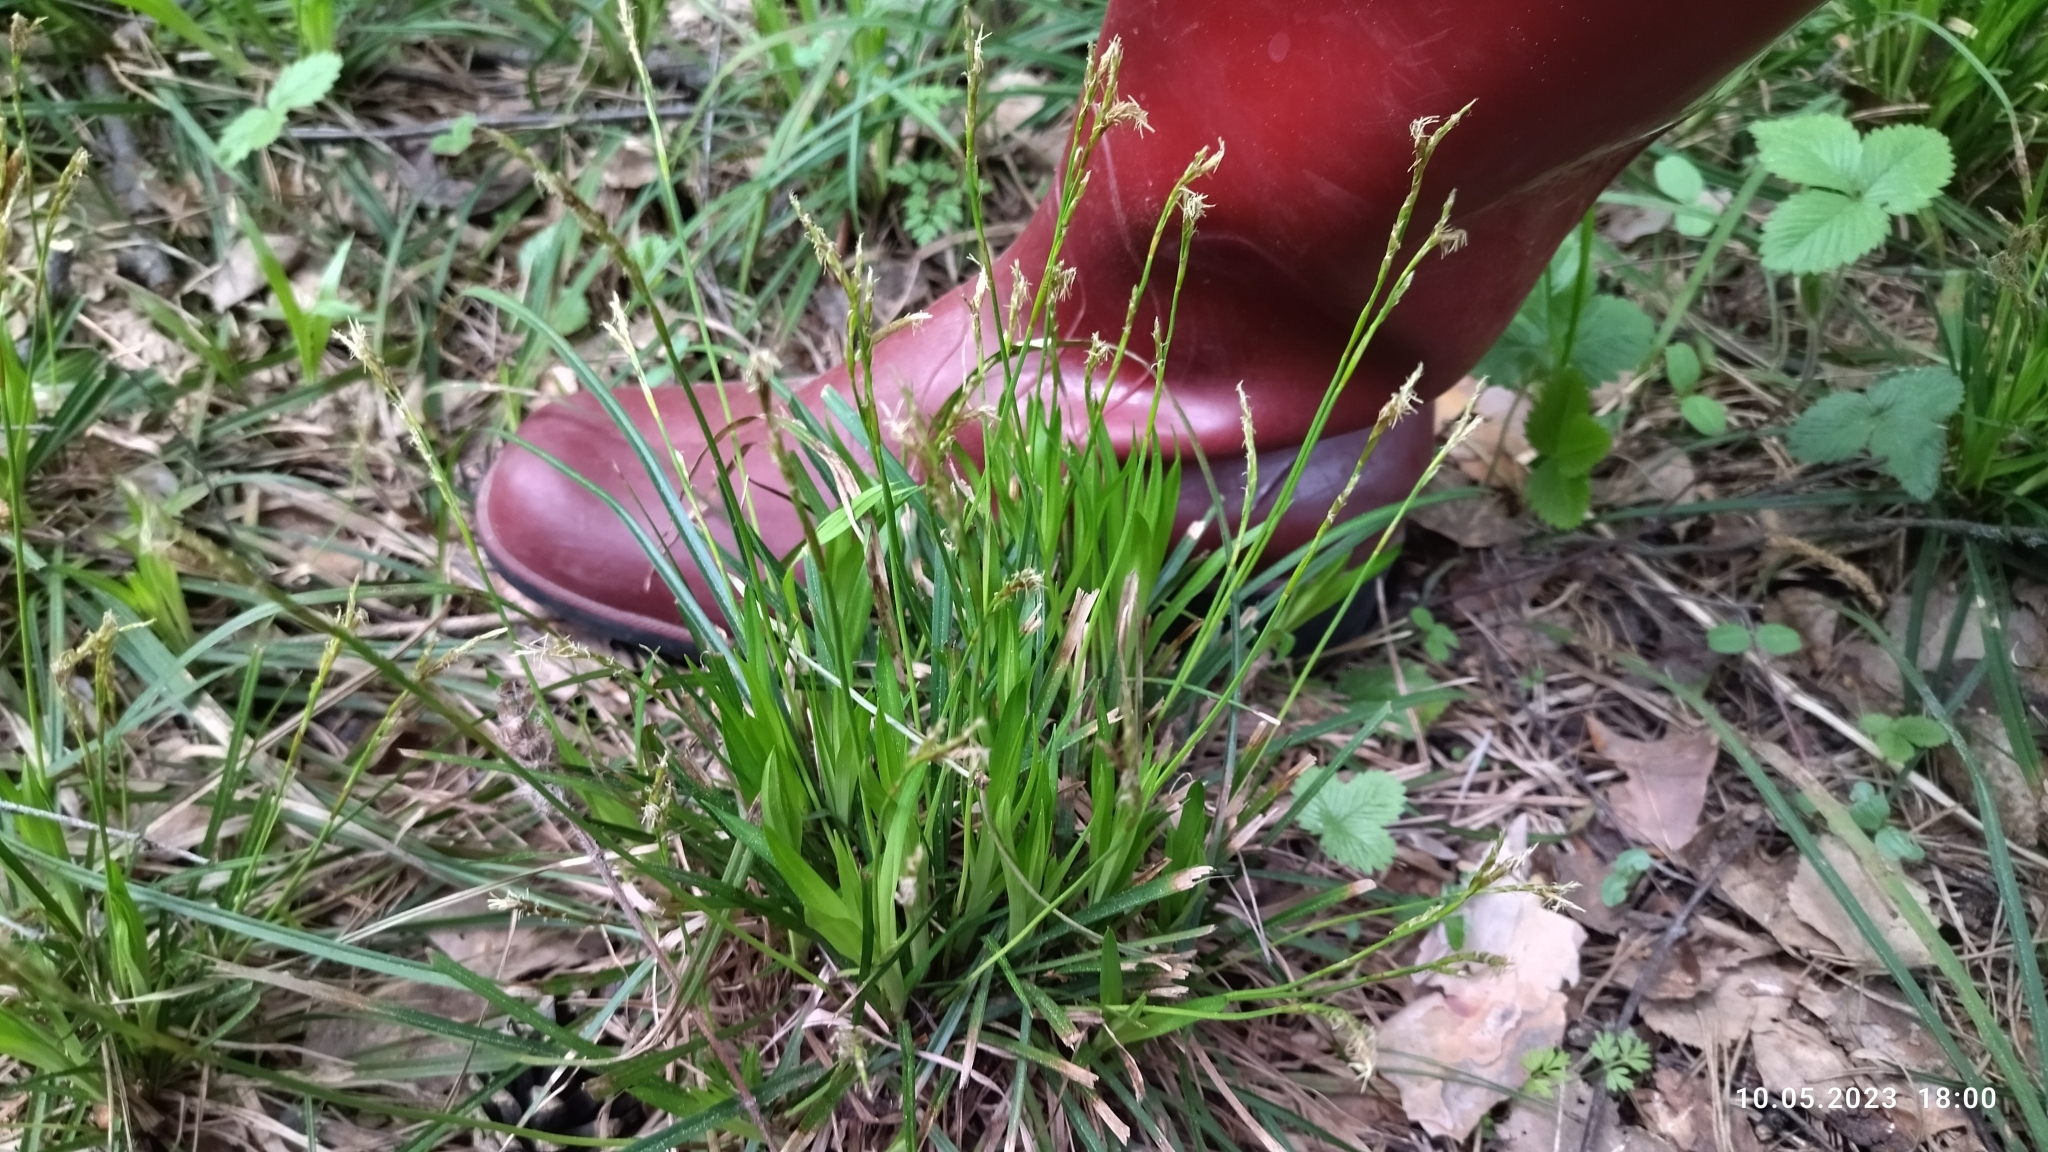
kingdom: Plantae
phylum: Tracheophyta
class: Liliopsida
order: Poales
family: Cyperaceae
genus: Carex
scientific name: Carex digitata
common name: Fingered sedge
